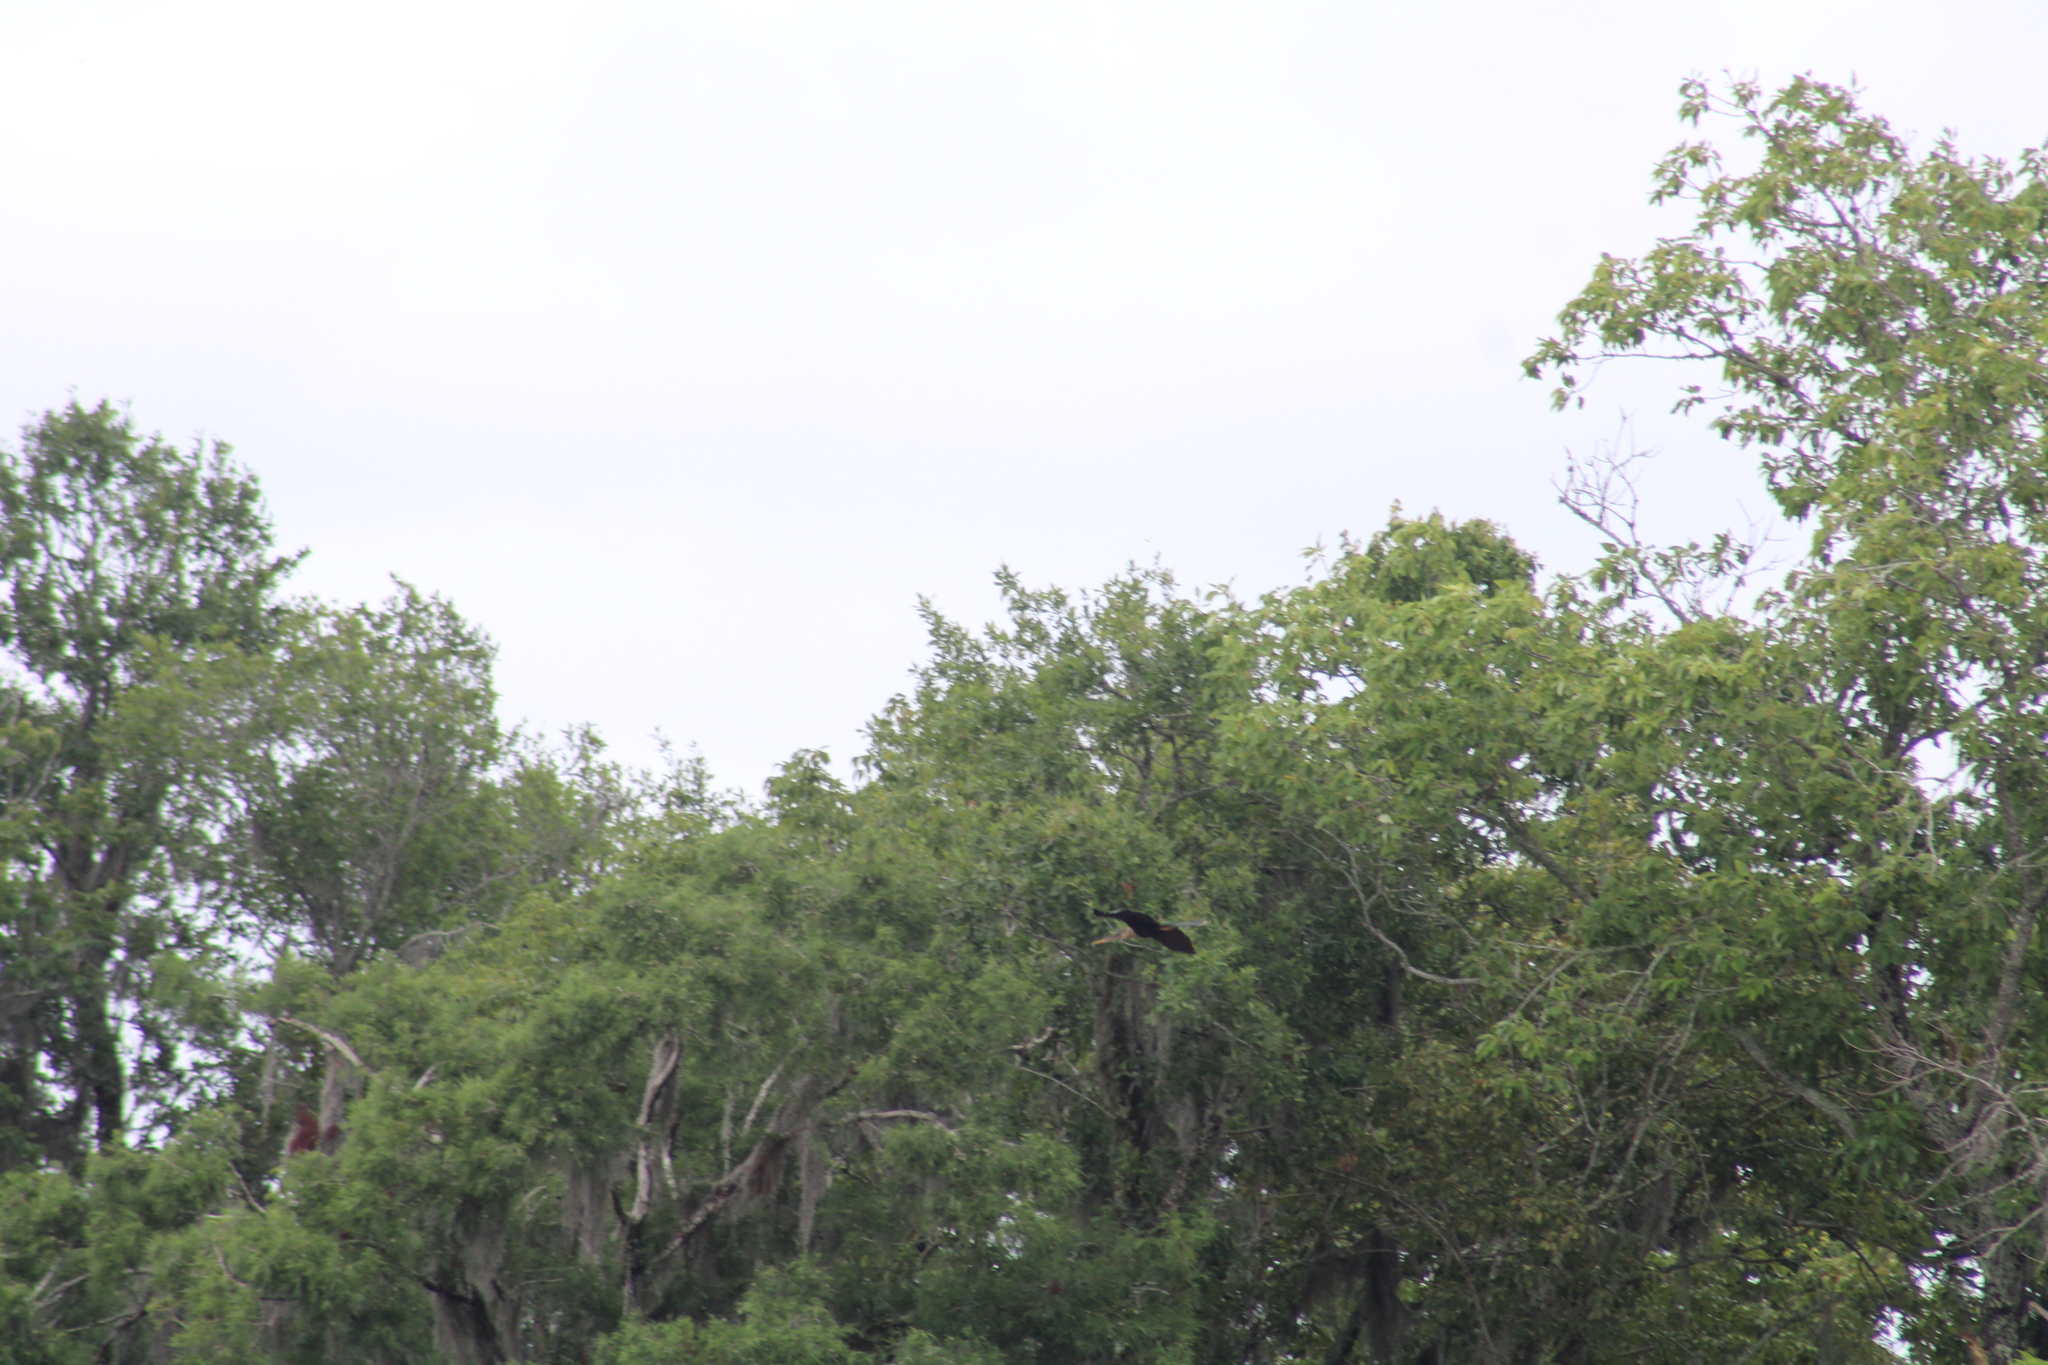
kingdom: Animalia
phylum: Chordata
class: Aves
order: Suliformes
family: Anhingidae
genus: Anhinga
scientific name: Anhinga anhinga
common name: Anhinga
